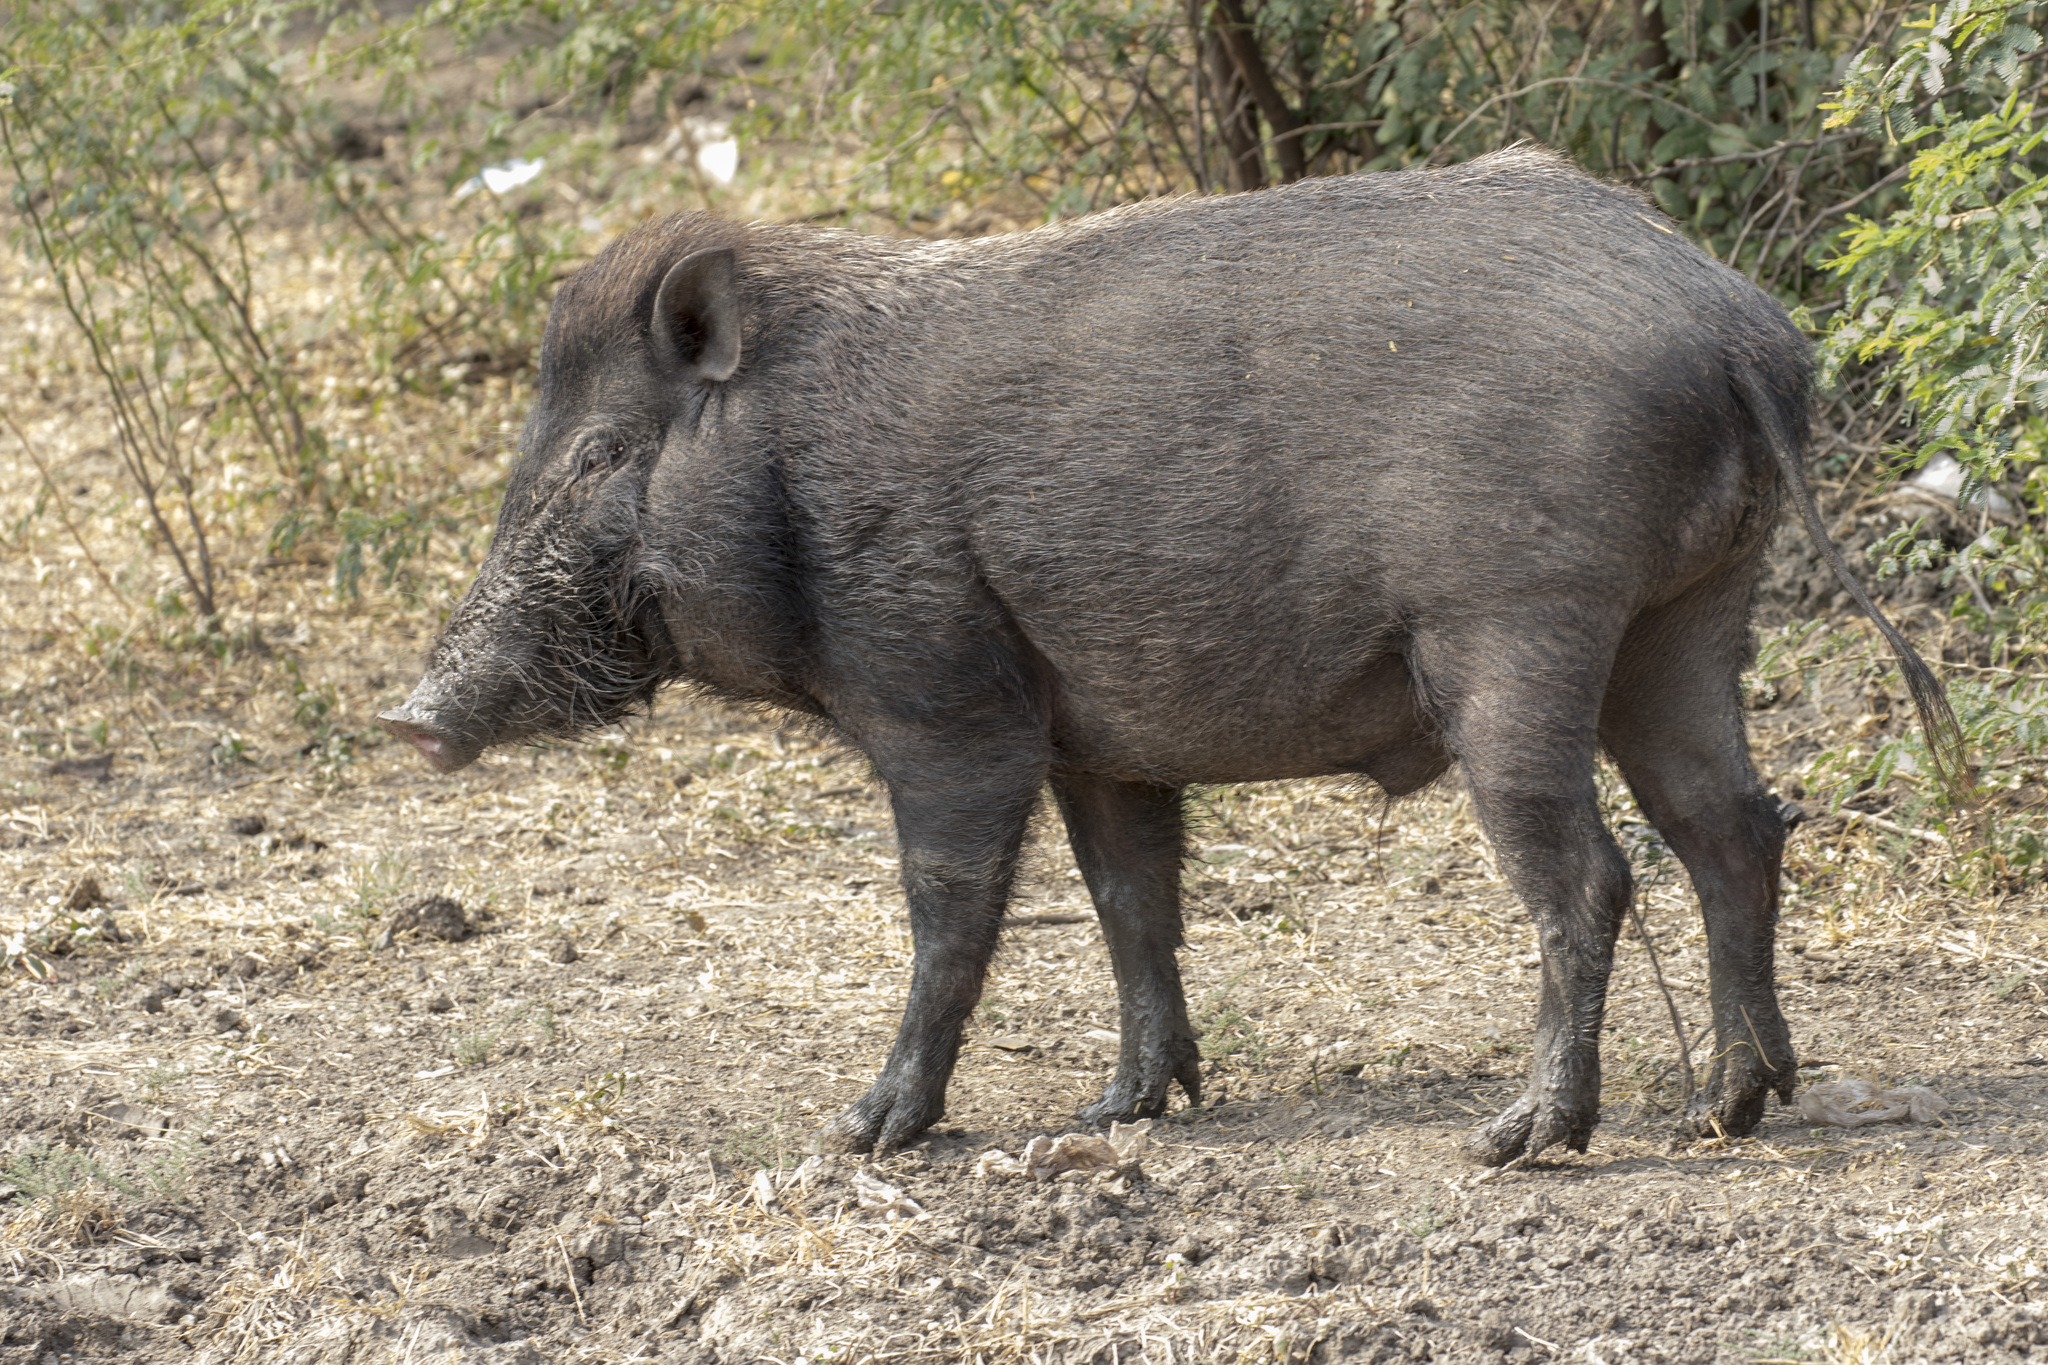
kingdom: Animalia
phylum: Chordata
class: Mammalia
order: Artiodactyla
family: Suidae
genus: Sus
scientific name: Sus scrofa
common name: Wild boar
